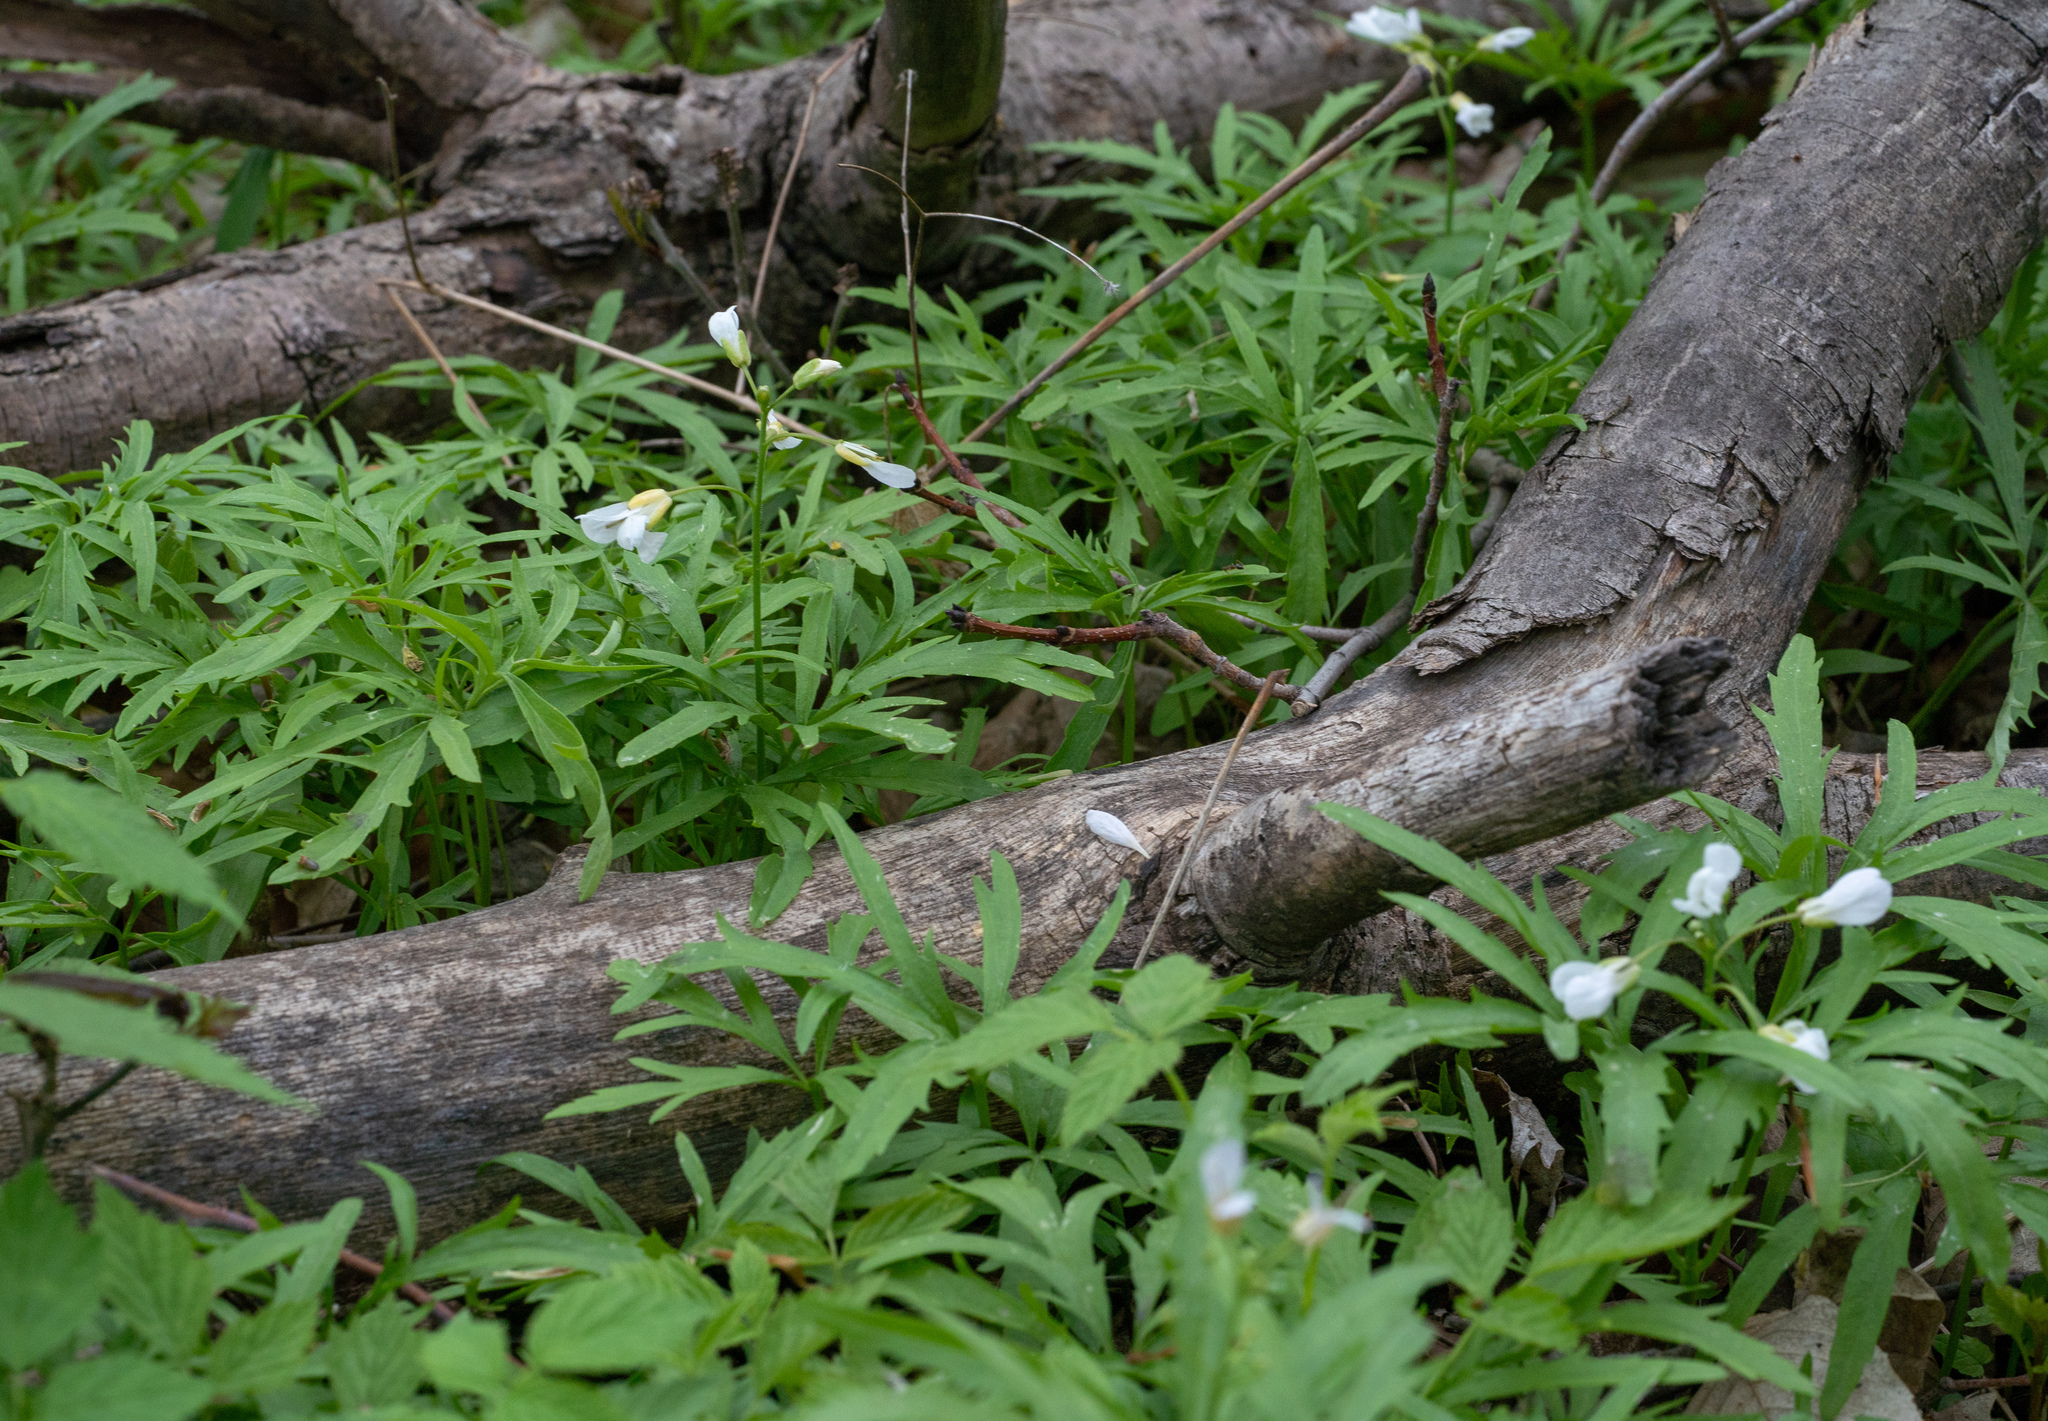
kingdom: Plantae
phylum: Tracheophyta
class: Magnoliopsida
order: Brassicales
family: Brassicaceae
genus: Cardamine
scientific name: Cardamine concatenata
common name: Cut-leaf toothcup
